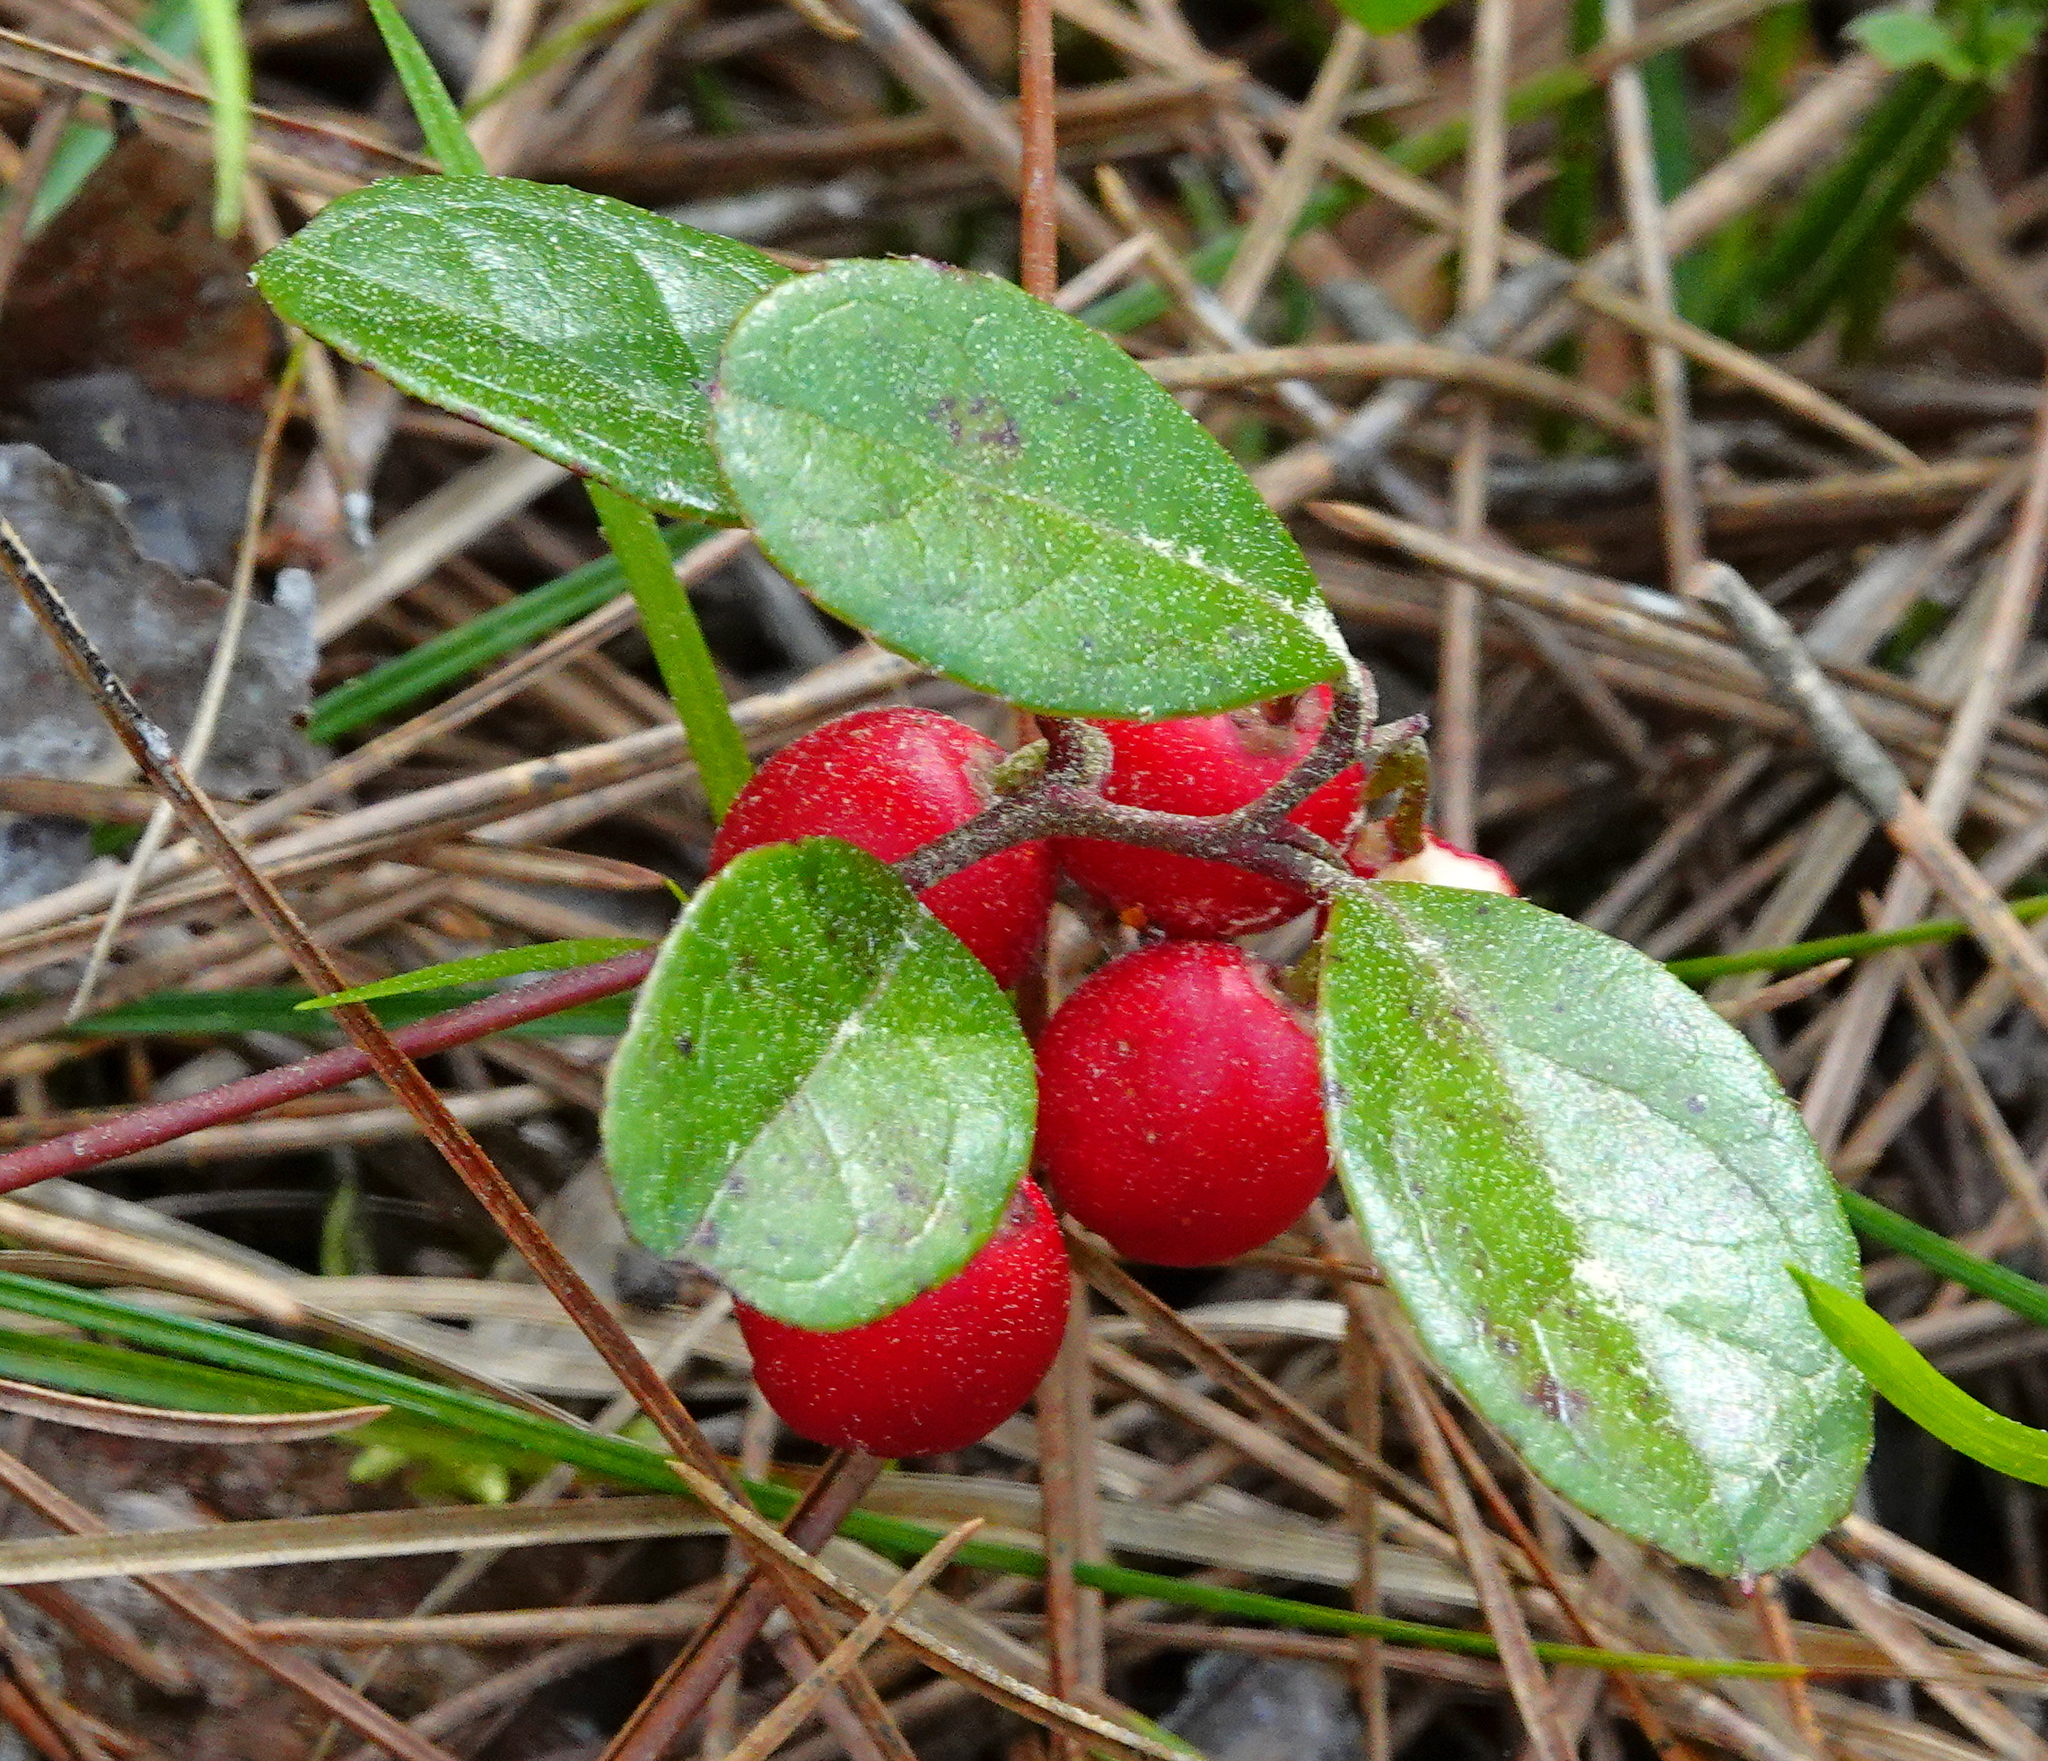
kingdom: Plantae
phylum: Tracheophyta
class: Magnoliopsida
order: Ericales
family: Ericaceae
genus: Gaultheria
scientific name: Gaultheria procumbens
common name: Checkerberry
